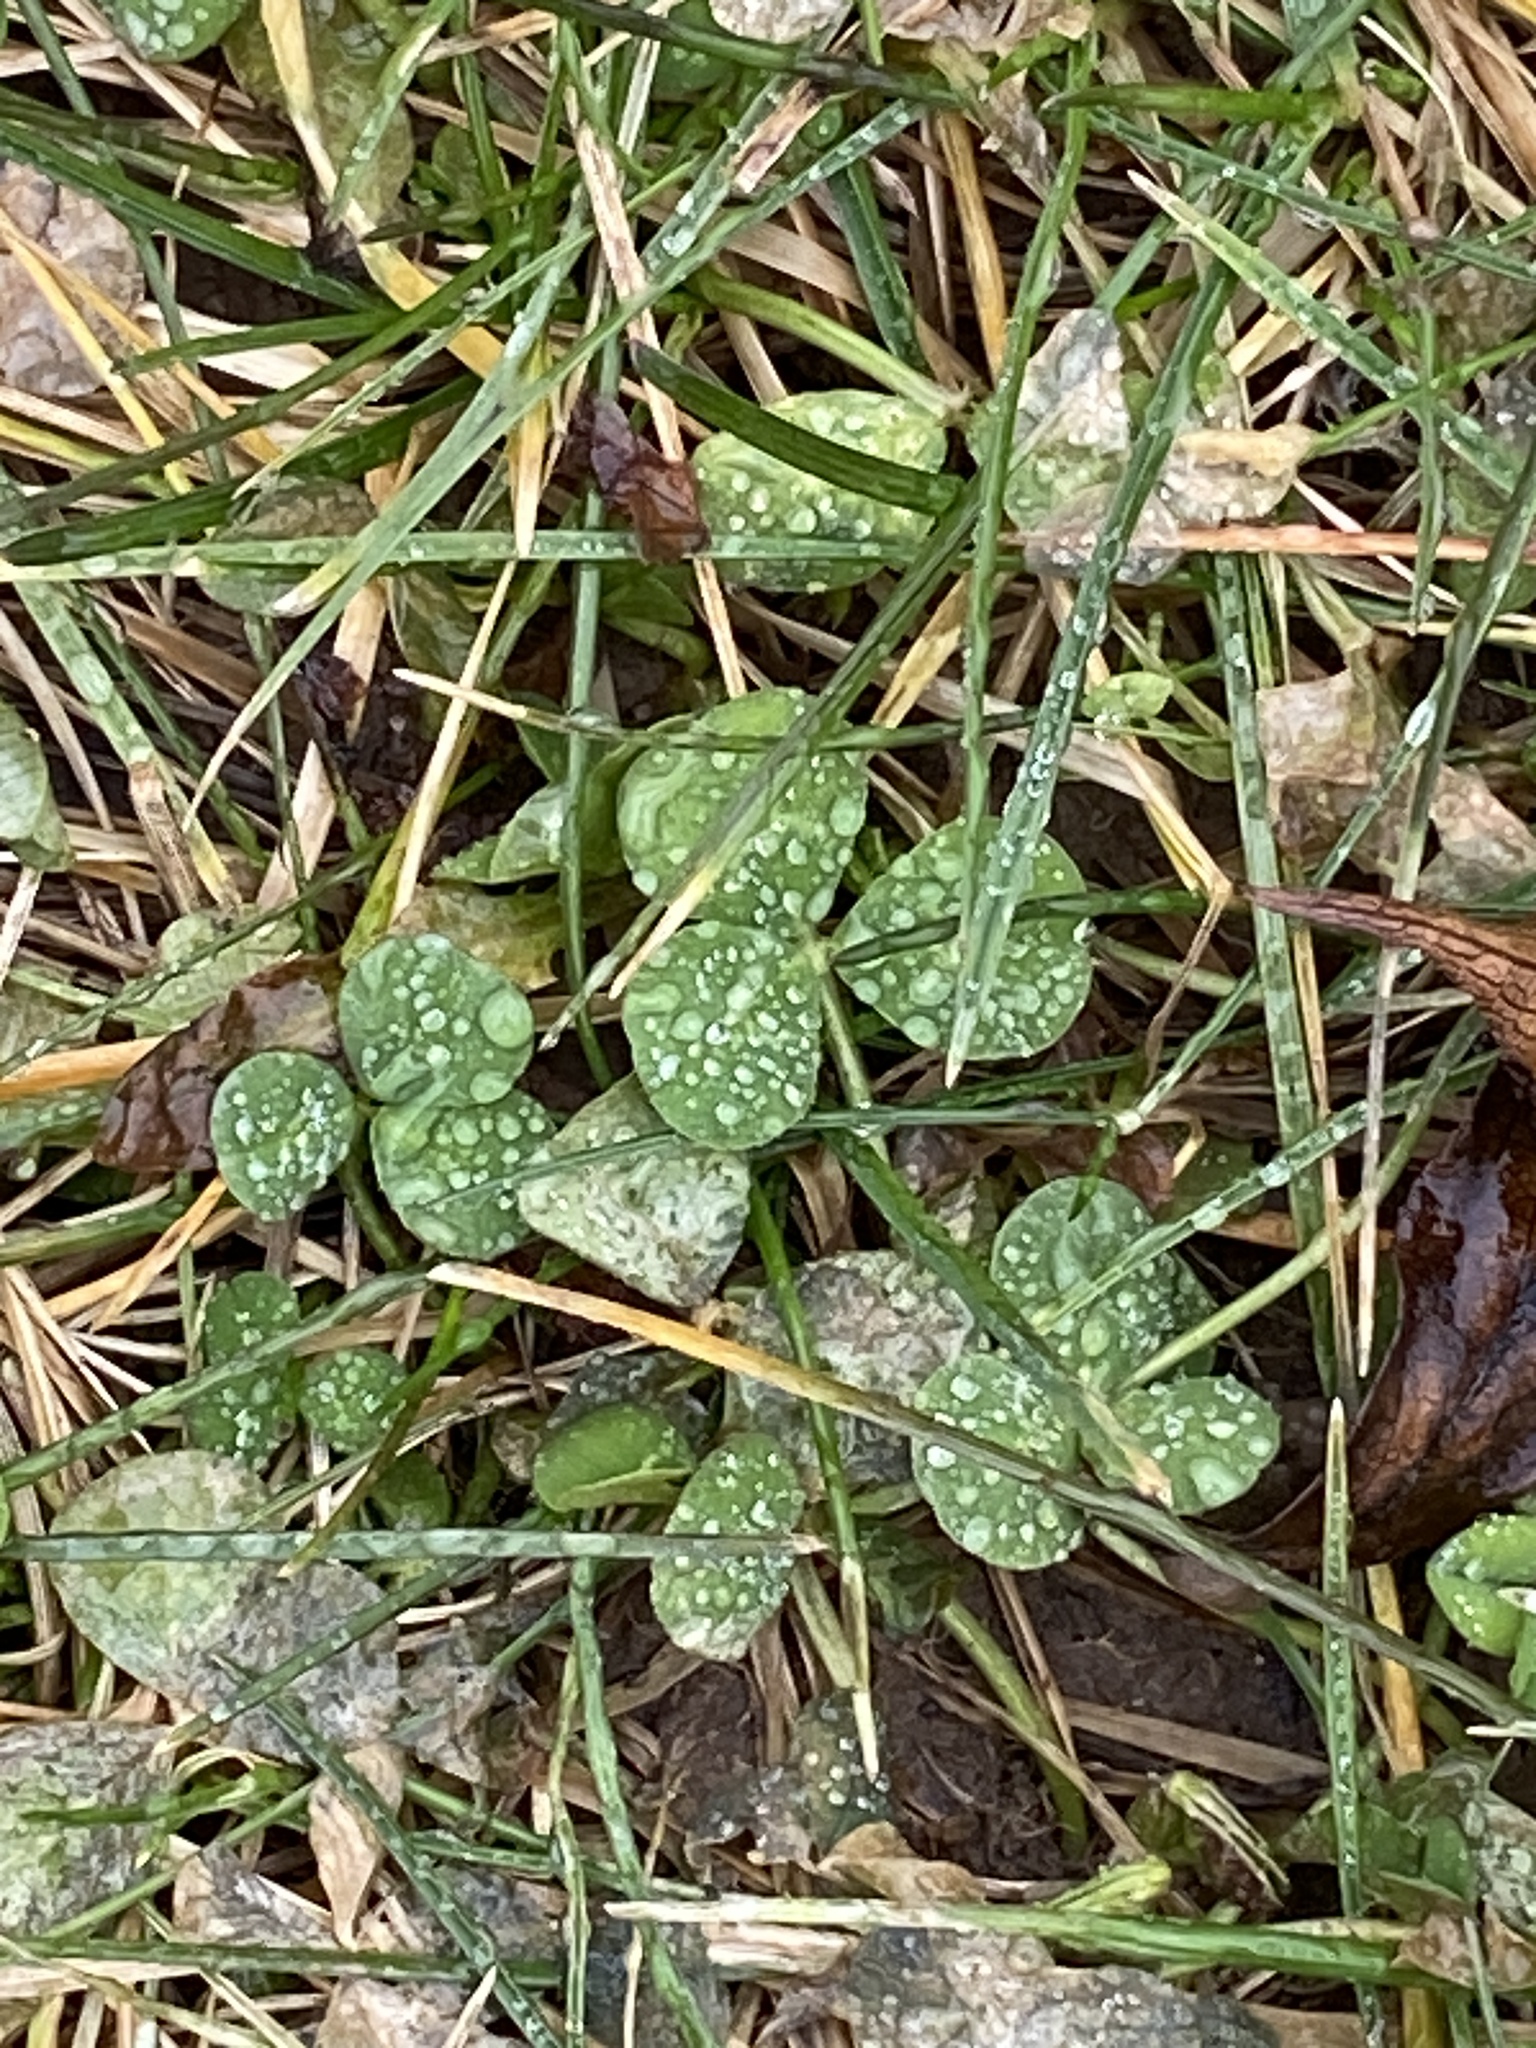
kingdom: Plantae
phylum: Tracheophyta
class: Magnoliopsida
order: Fabales
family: Fabaceae
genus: Trifolium
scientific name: Trifolium repens
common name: White clover
